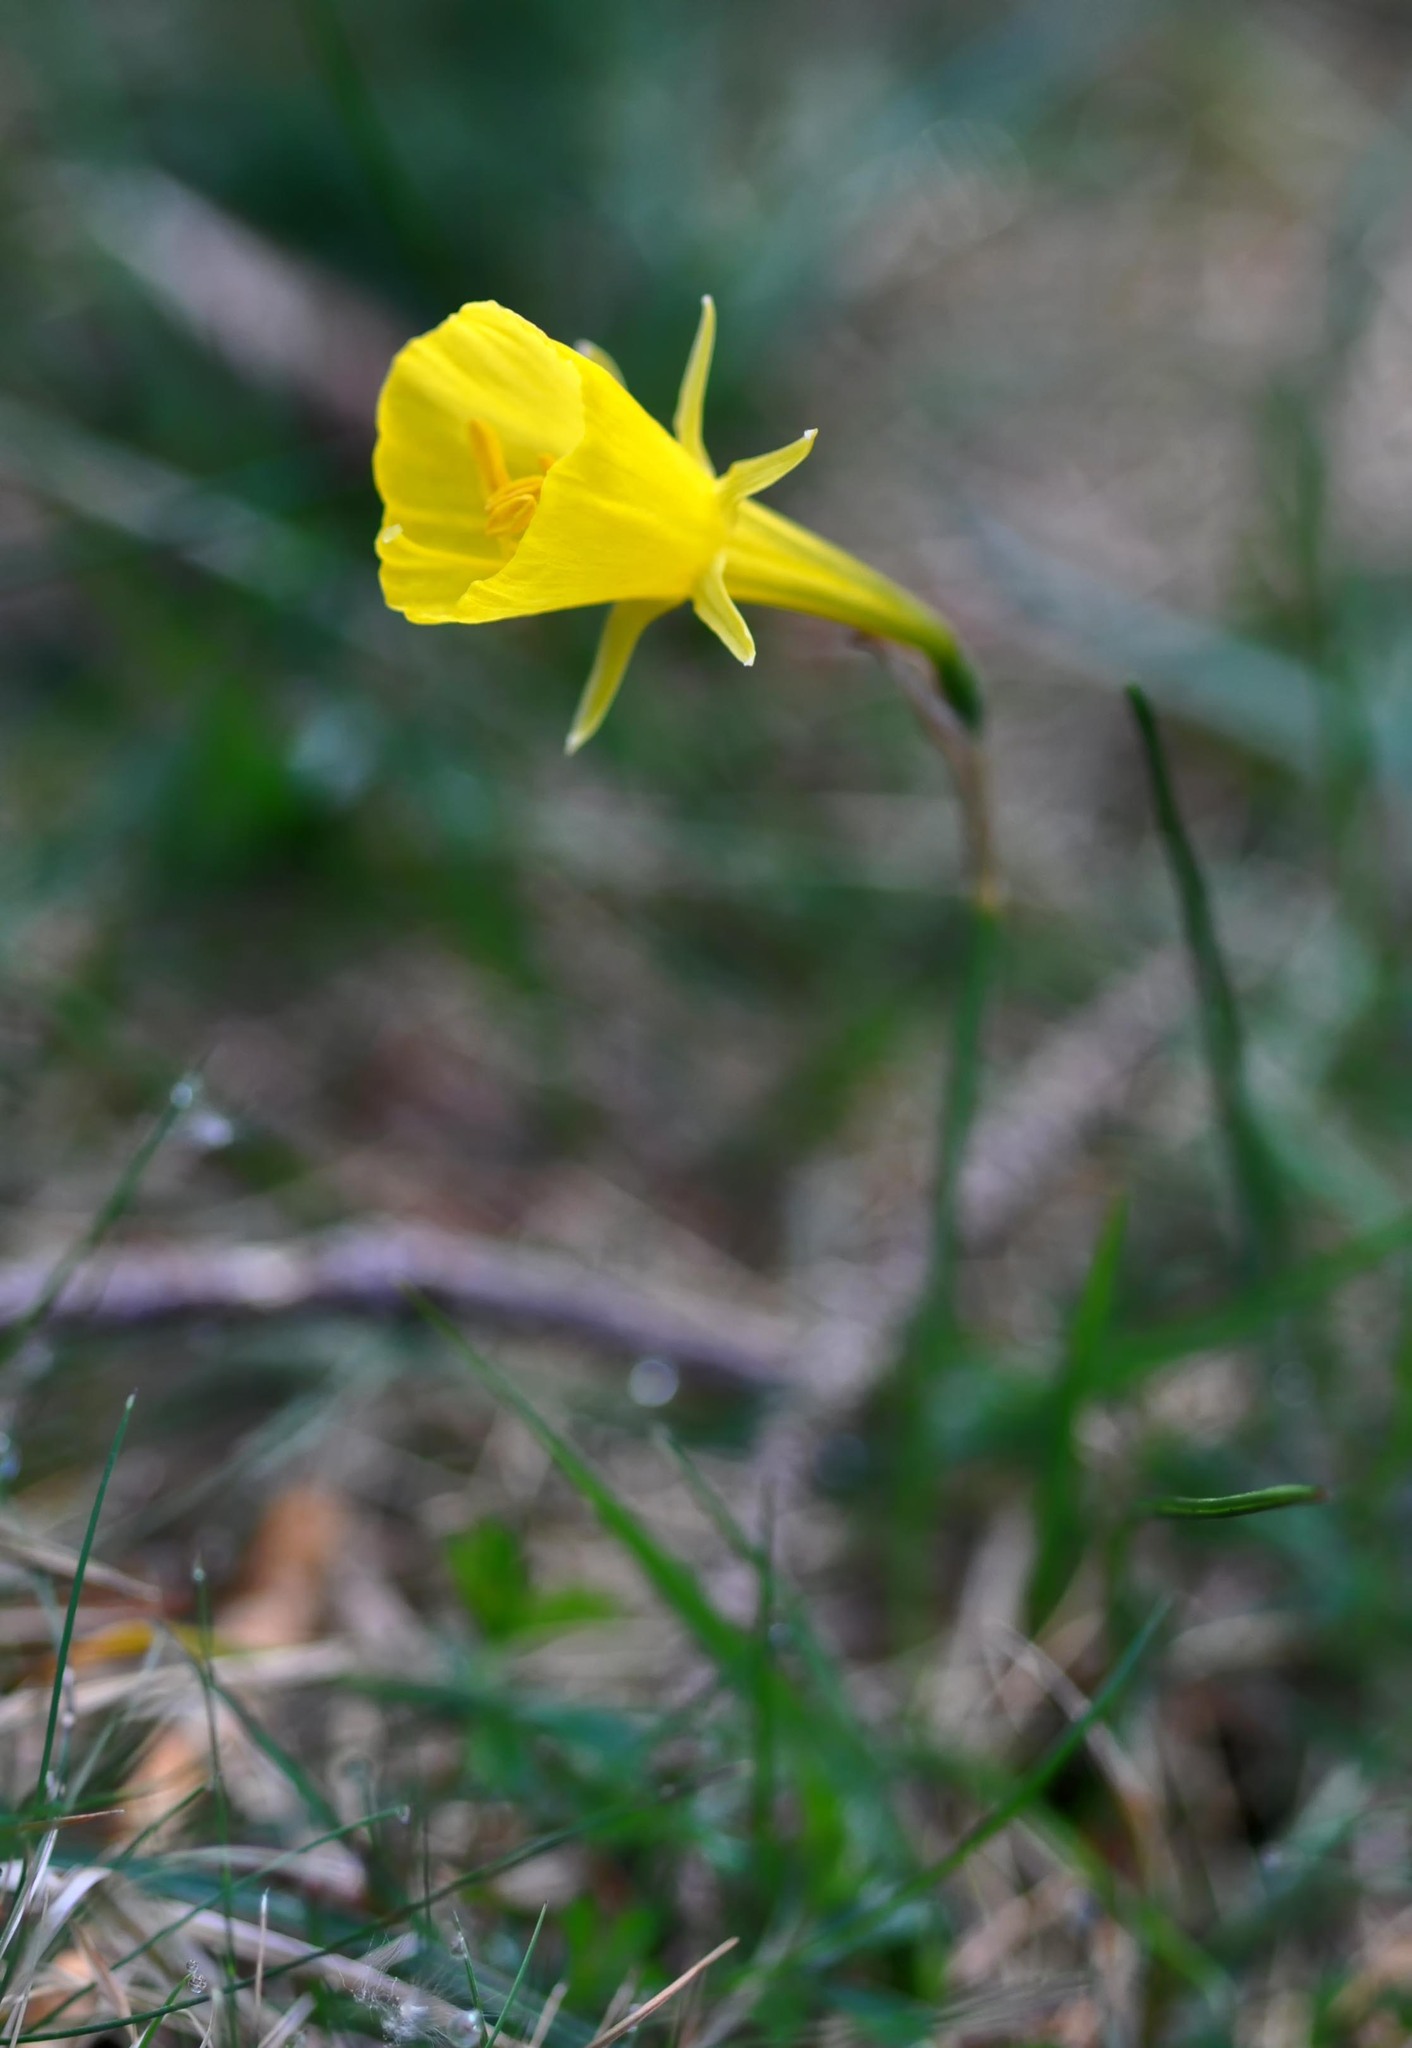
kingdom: Plantae
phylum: Tracheophyta
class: Liliopsida
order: Asparagales
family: Amaryllidaceae
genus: Narcissus
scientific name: Narcissus bulbocodium
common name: Hoop-petticoat daffodil
